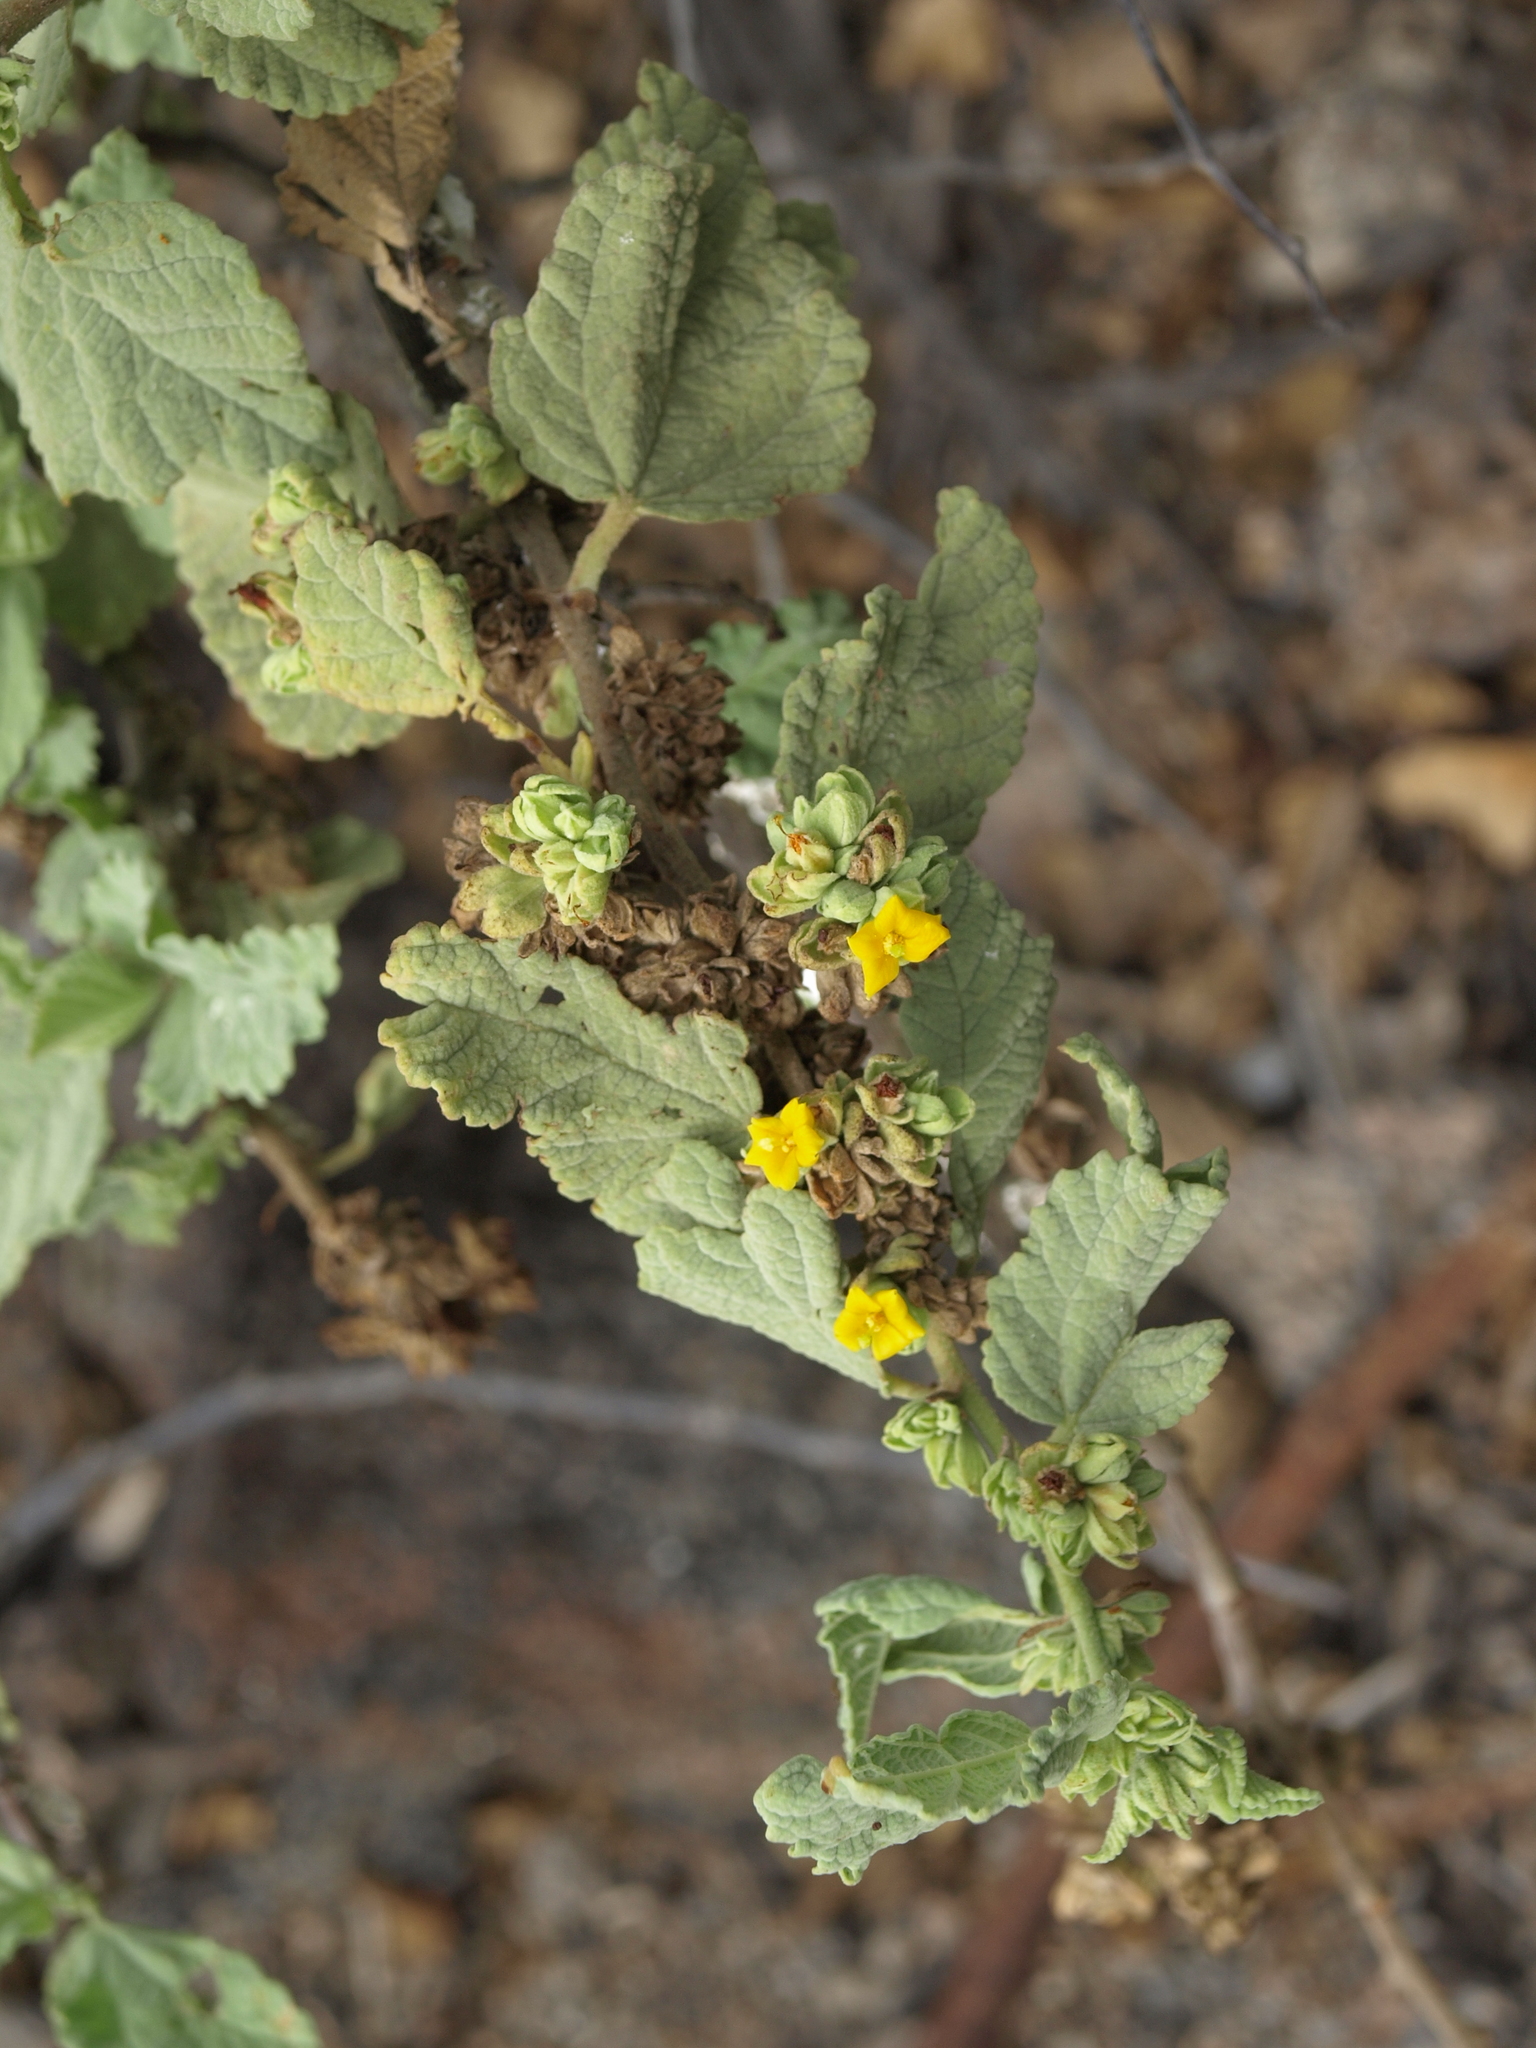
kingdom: Plantae
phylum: Tracheophyta
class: Magnoliopsida
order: Malvales
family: Malvaceae
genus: Waltheria
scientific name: Waltheria ovata
